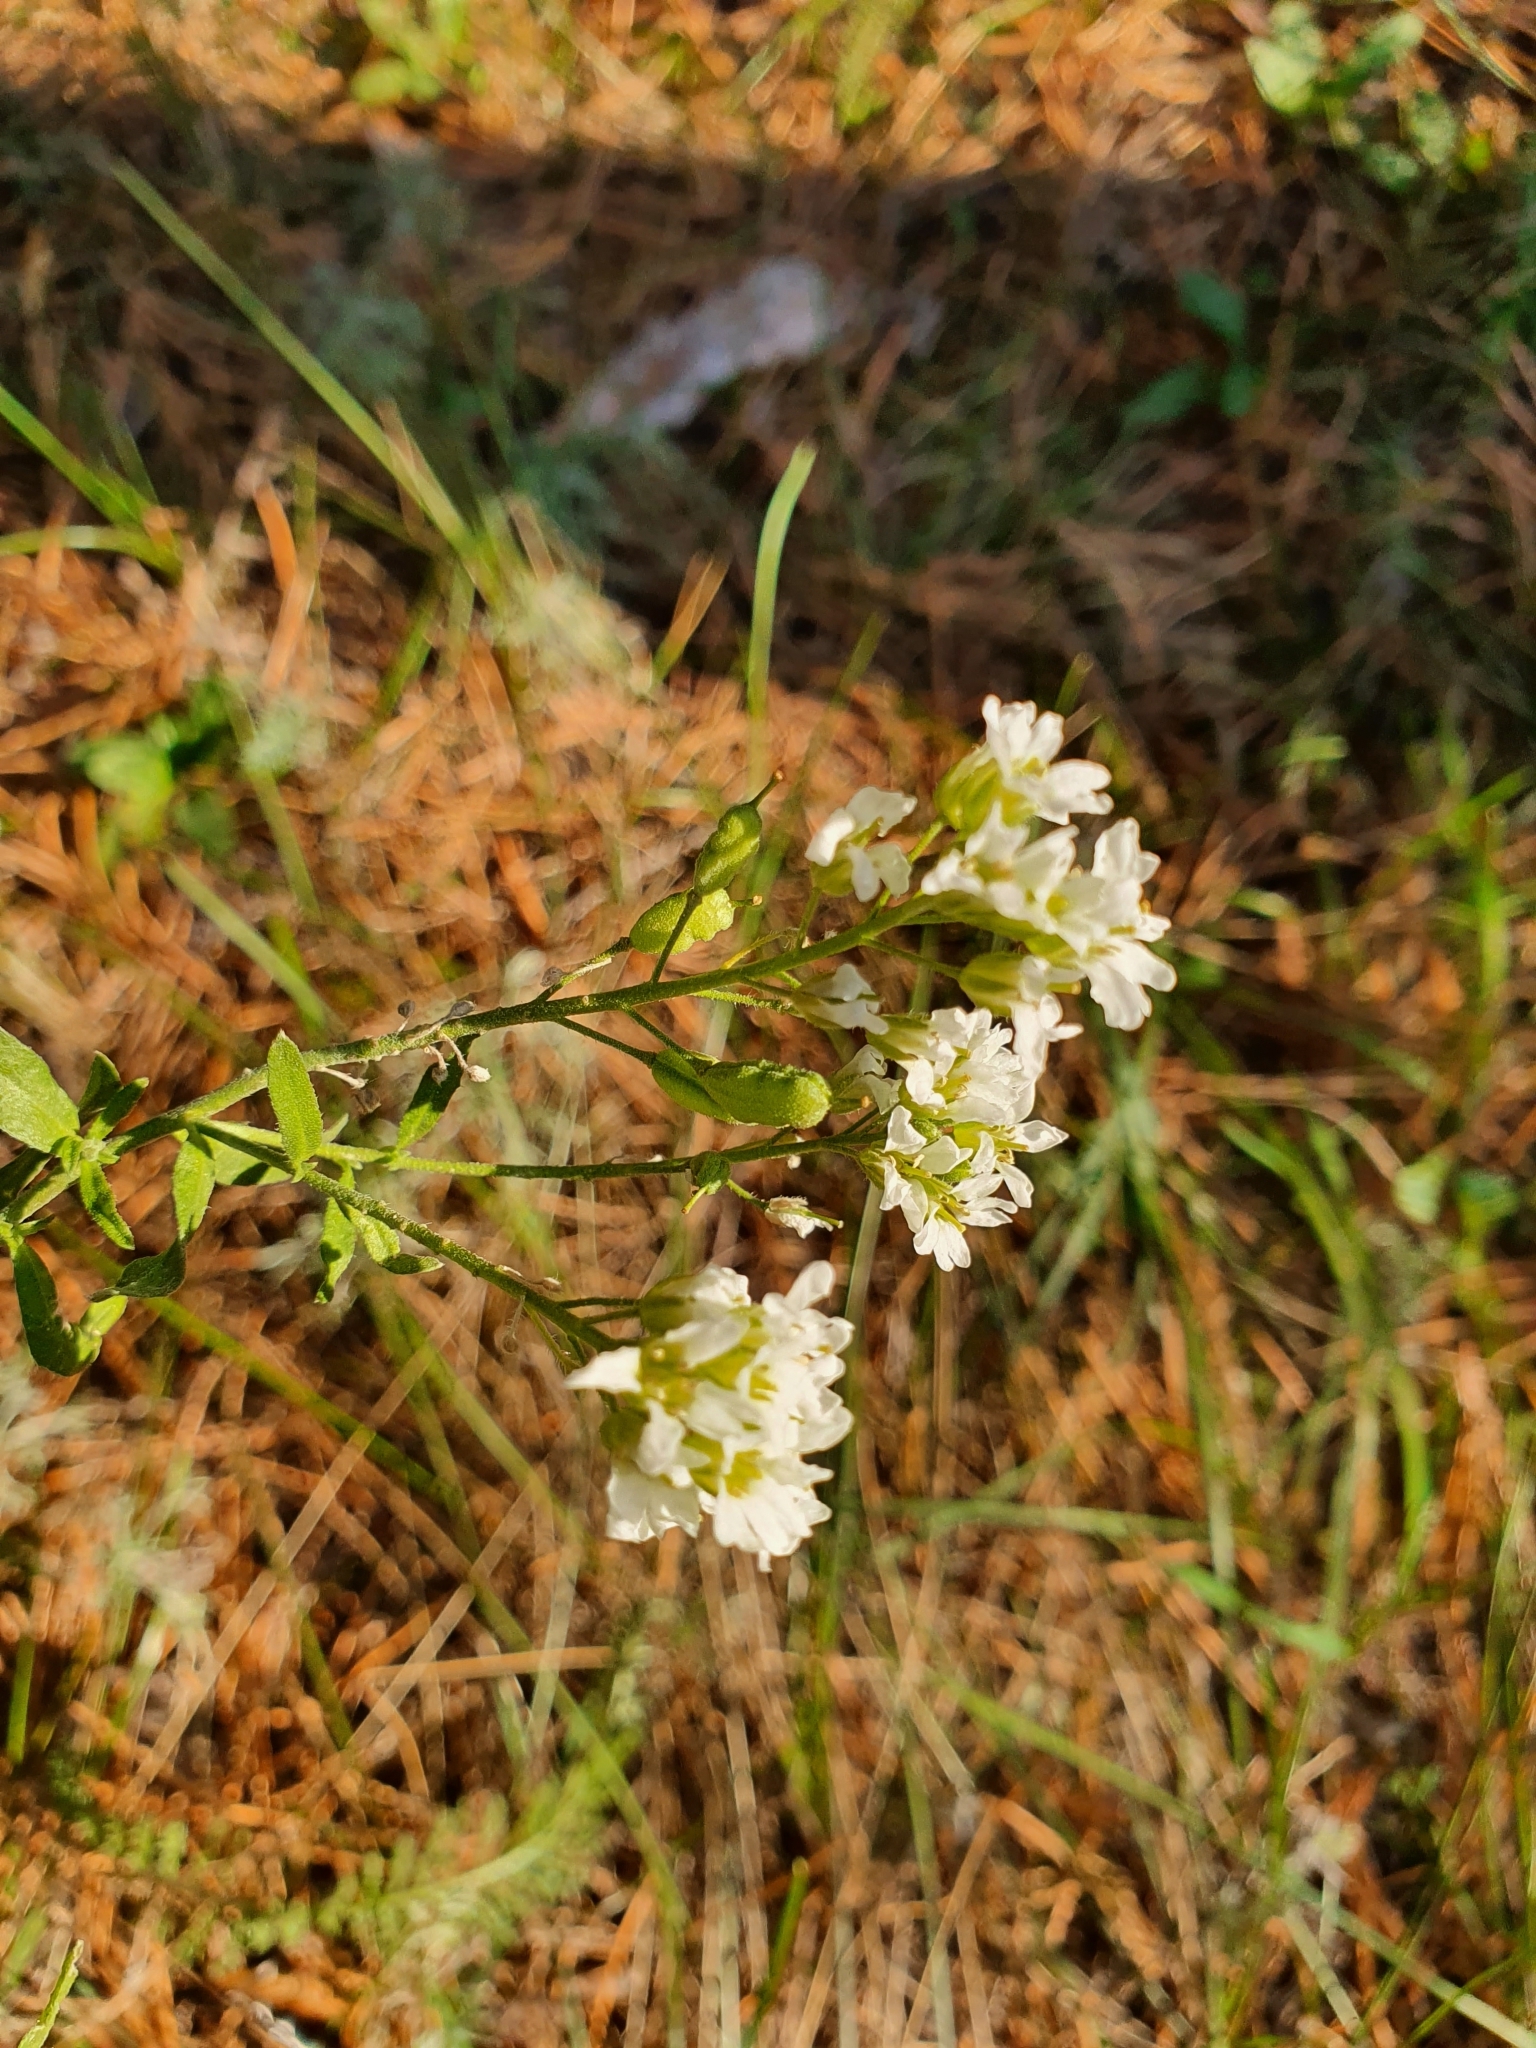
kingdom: Plantae
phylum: Tracheophyta
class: Magnoliopsida
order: Brassicales
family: Brassicaceae
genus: Berteroa
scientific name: Berteroa incana
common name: Hoary alison
